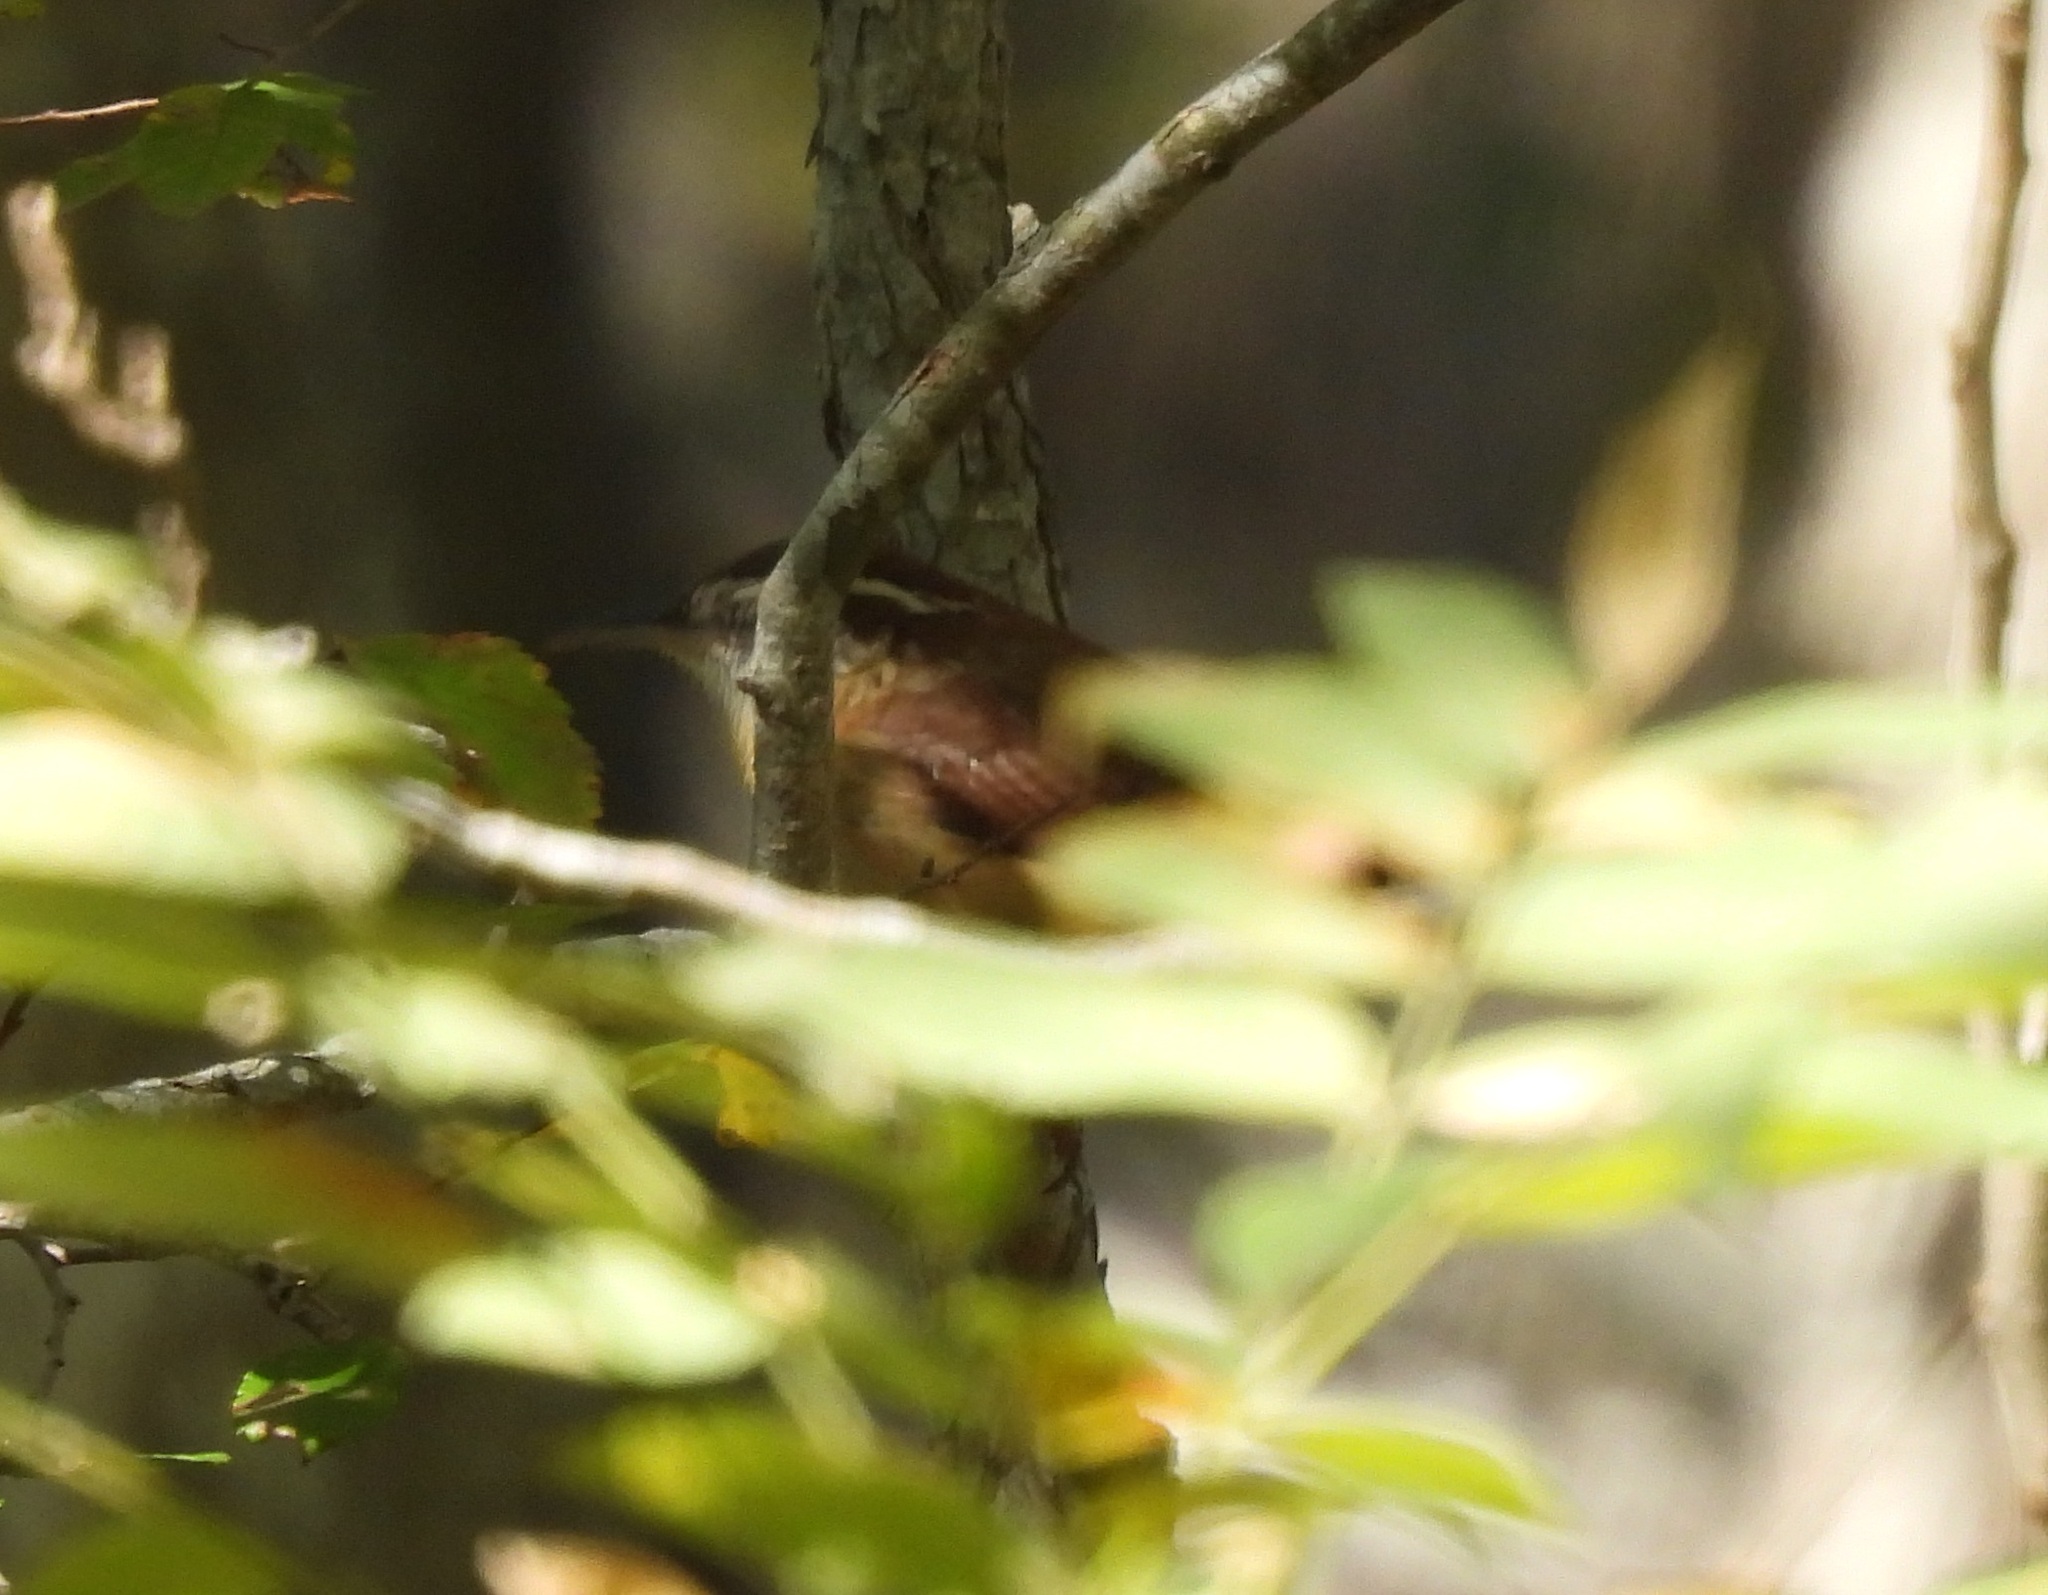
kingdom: Animalia
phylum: Chordata
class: Aves
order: Passeriformes
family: Troglodytidae
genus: Thryothorus
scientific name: Thryothorus ludovicianus
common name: Carolina wren
